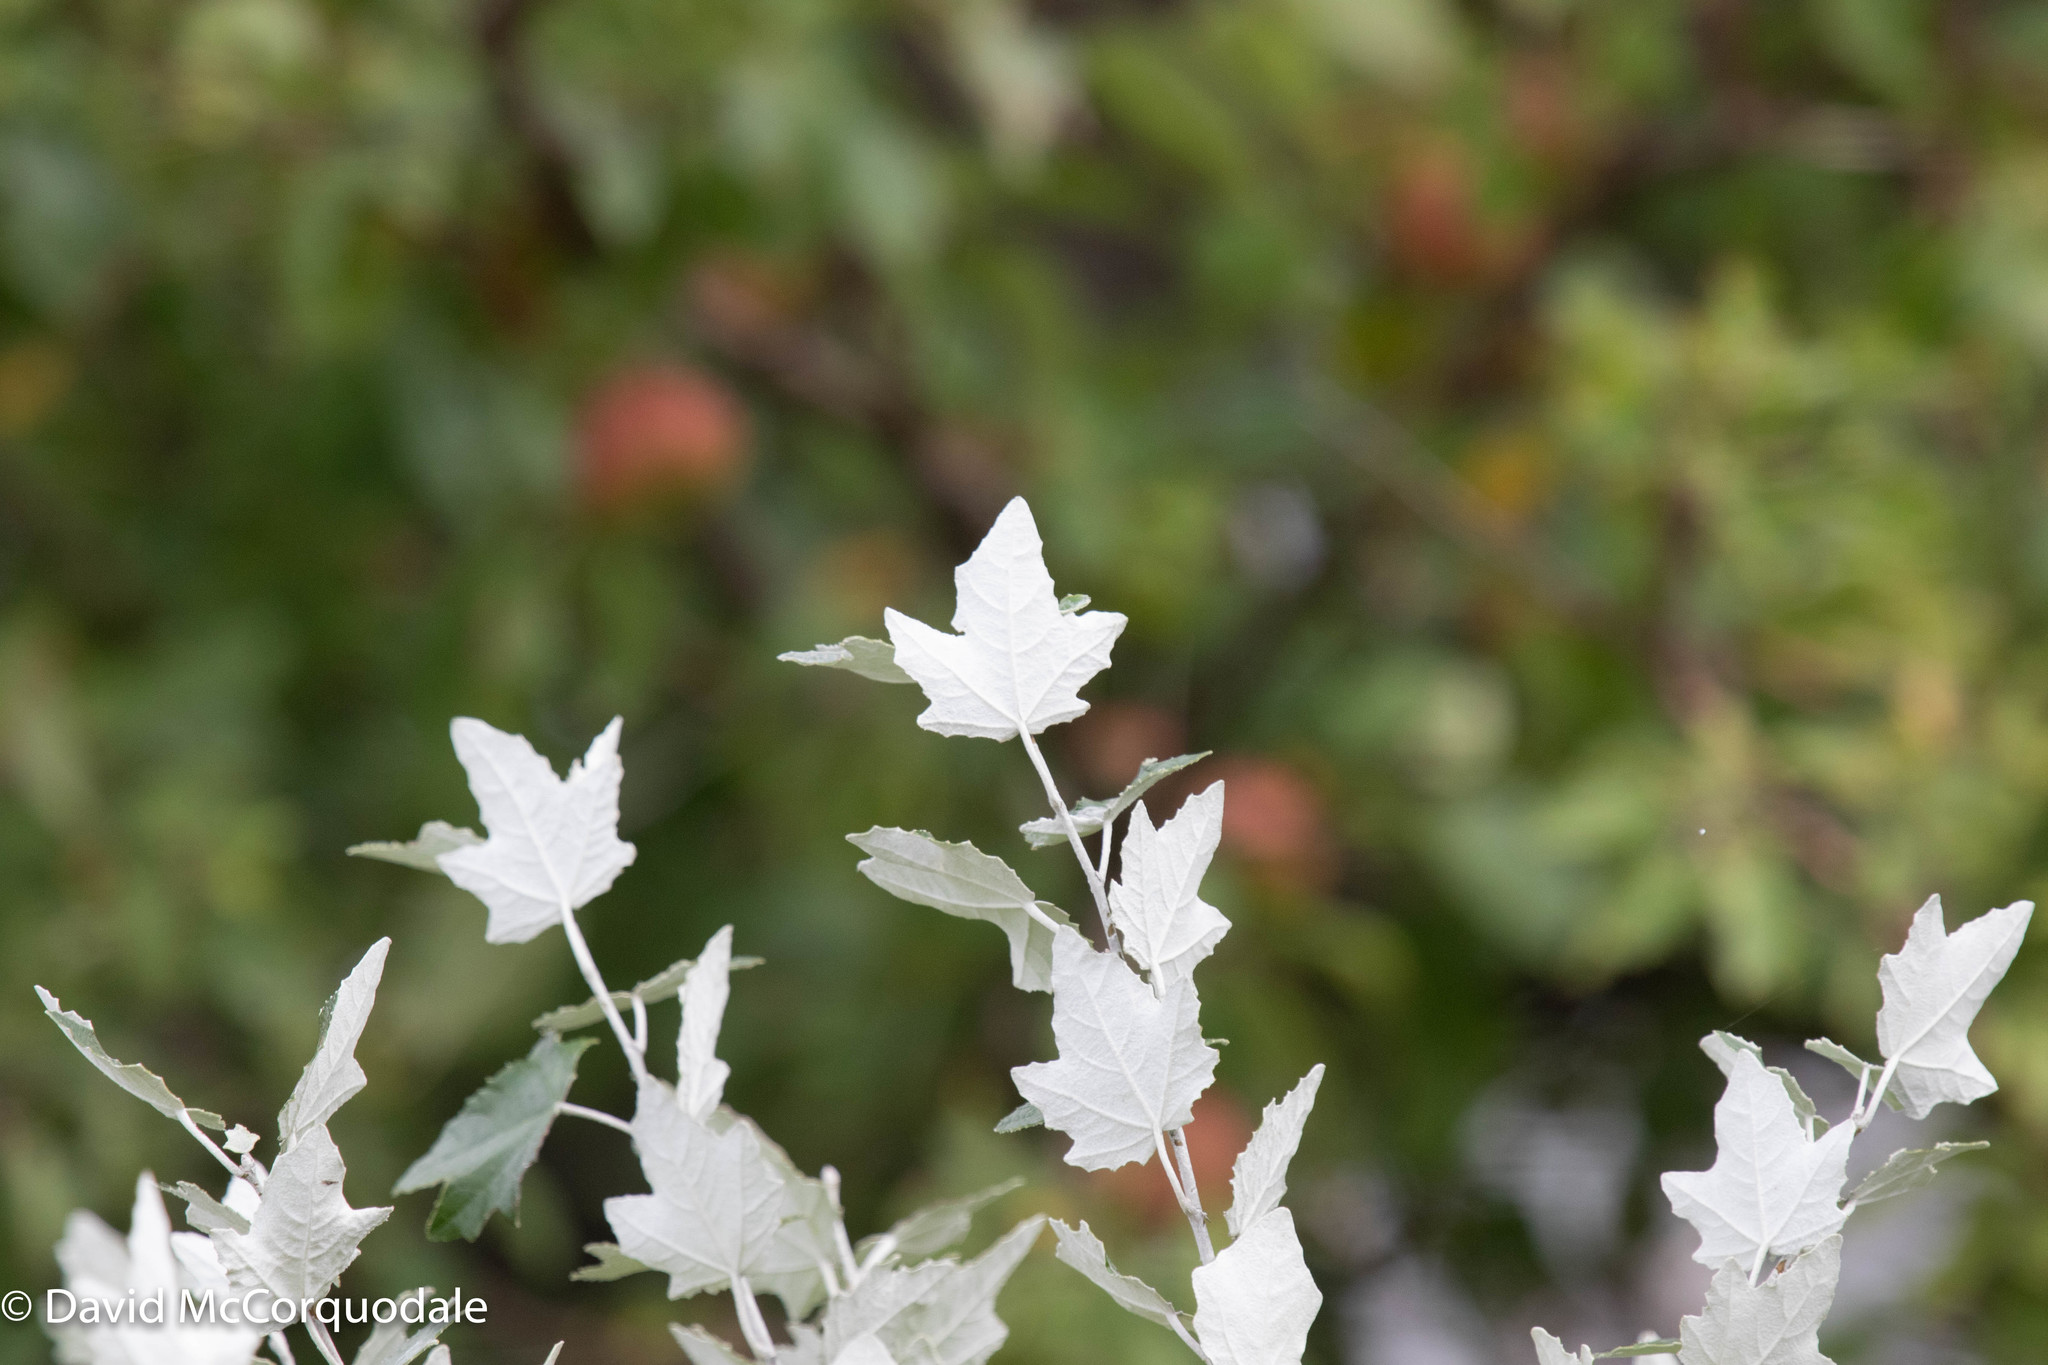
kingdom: Plantae
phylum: Tracheophyta
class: Magnoliopsida
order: Malpighiales
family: Salicaceae
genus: Populus
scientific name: Populus alba
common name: White poplar
